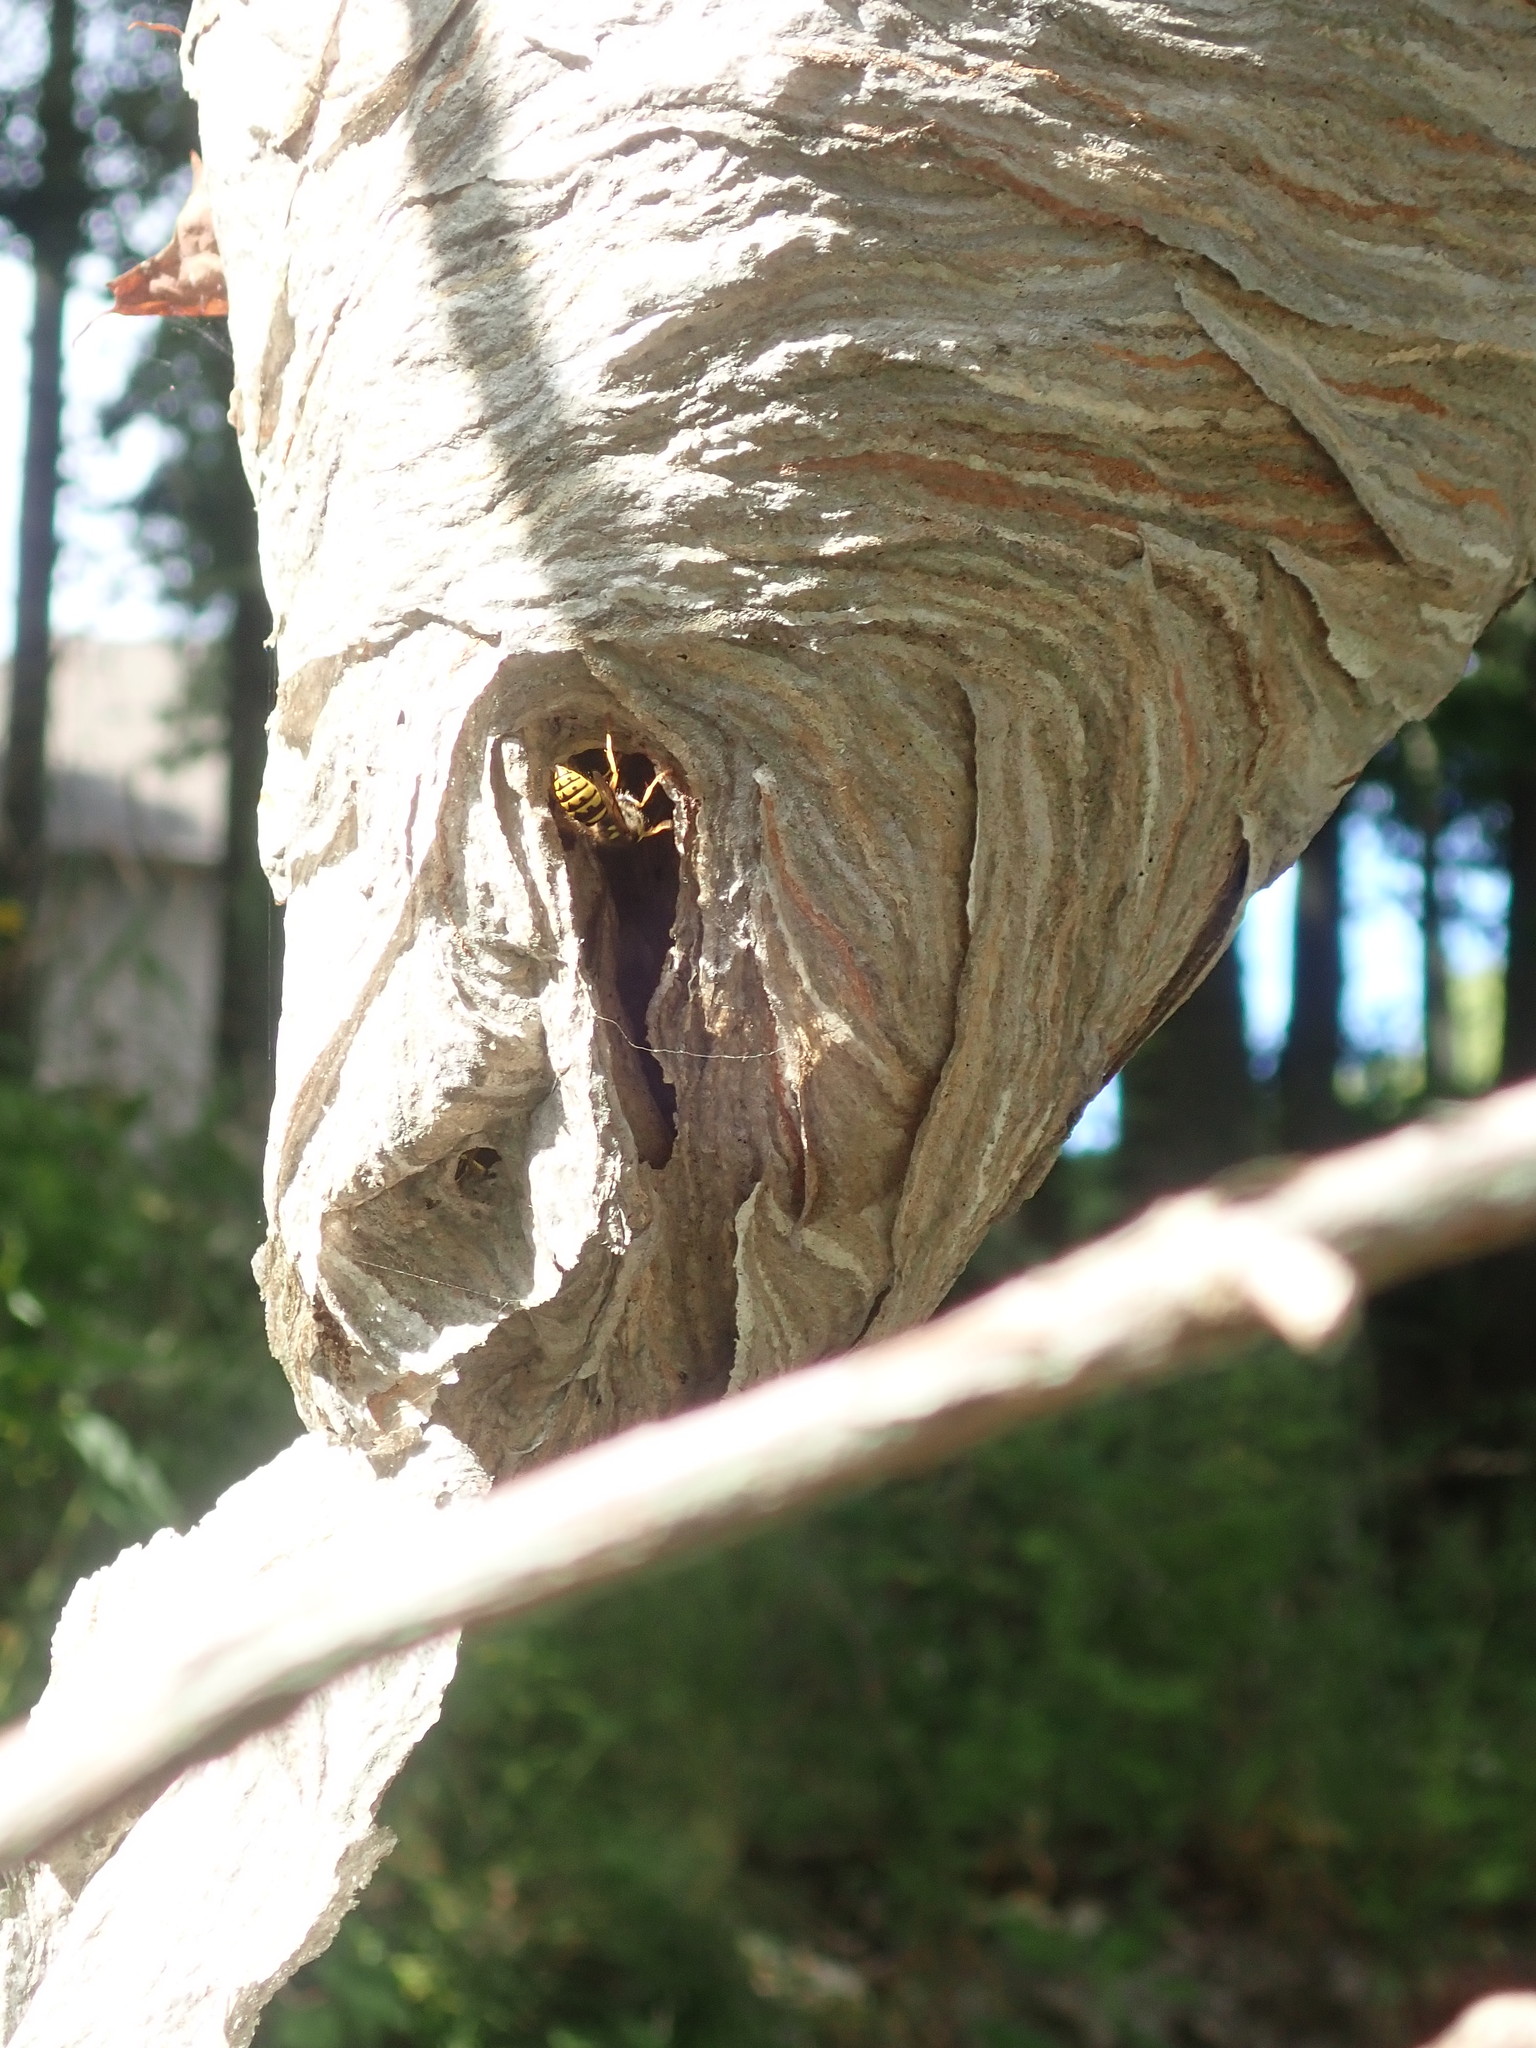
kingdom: Animalia
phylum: Arthropoda
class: Insecta
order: Hymenoptera
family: Vespidae
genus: Dolichovespula
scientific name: Dolichovespula
